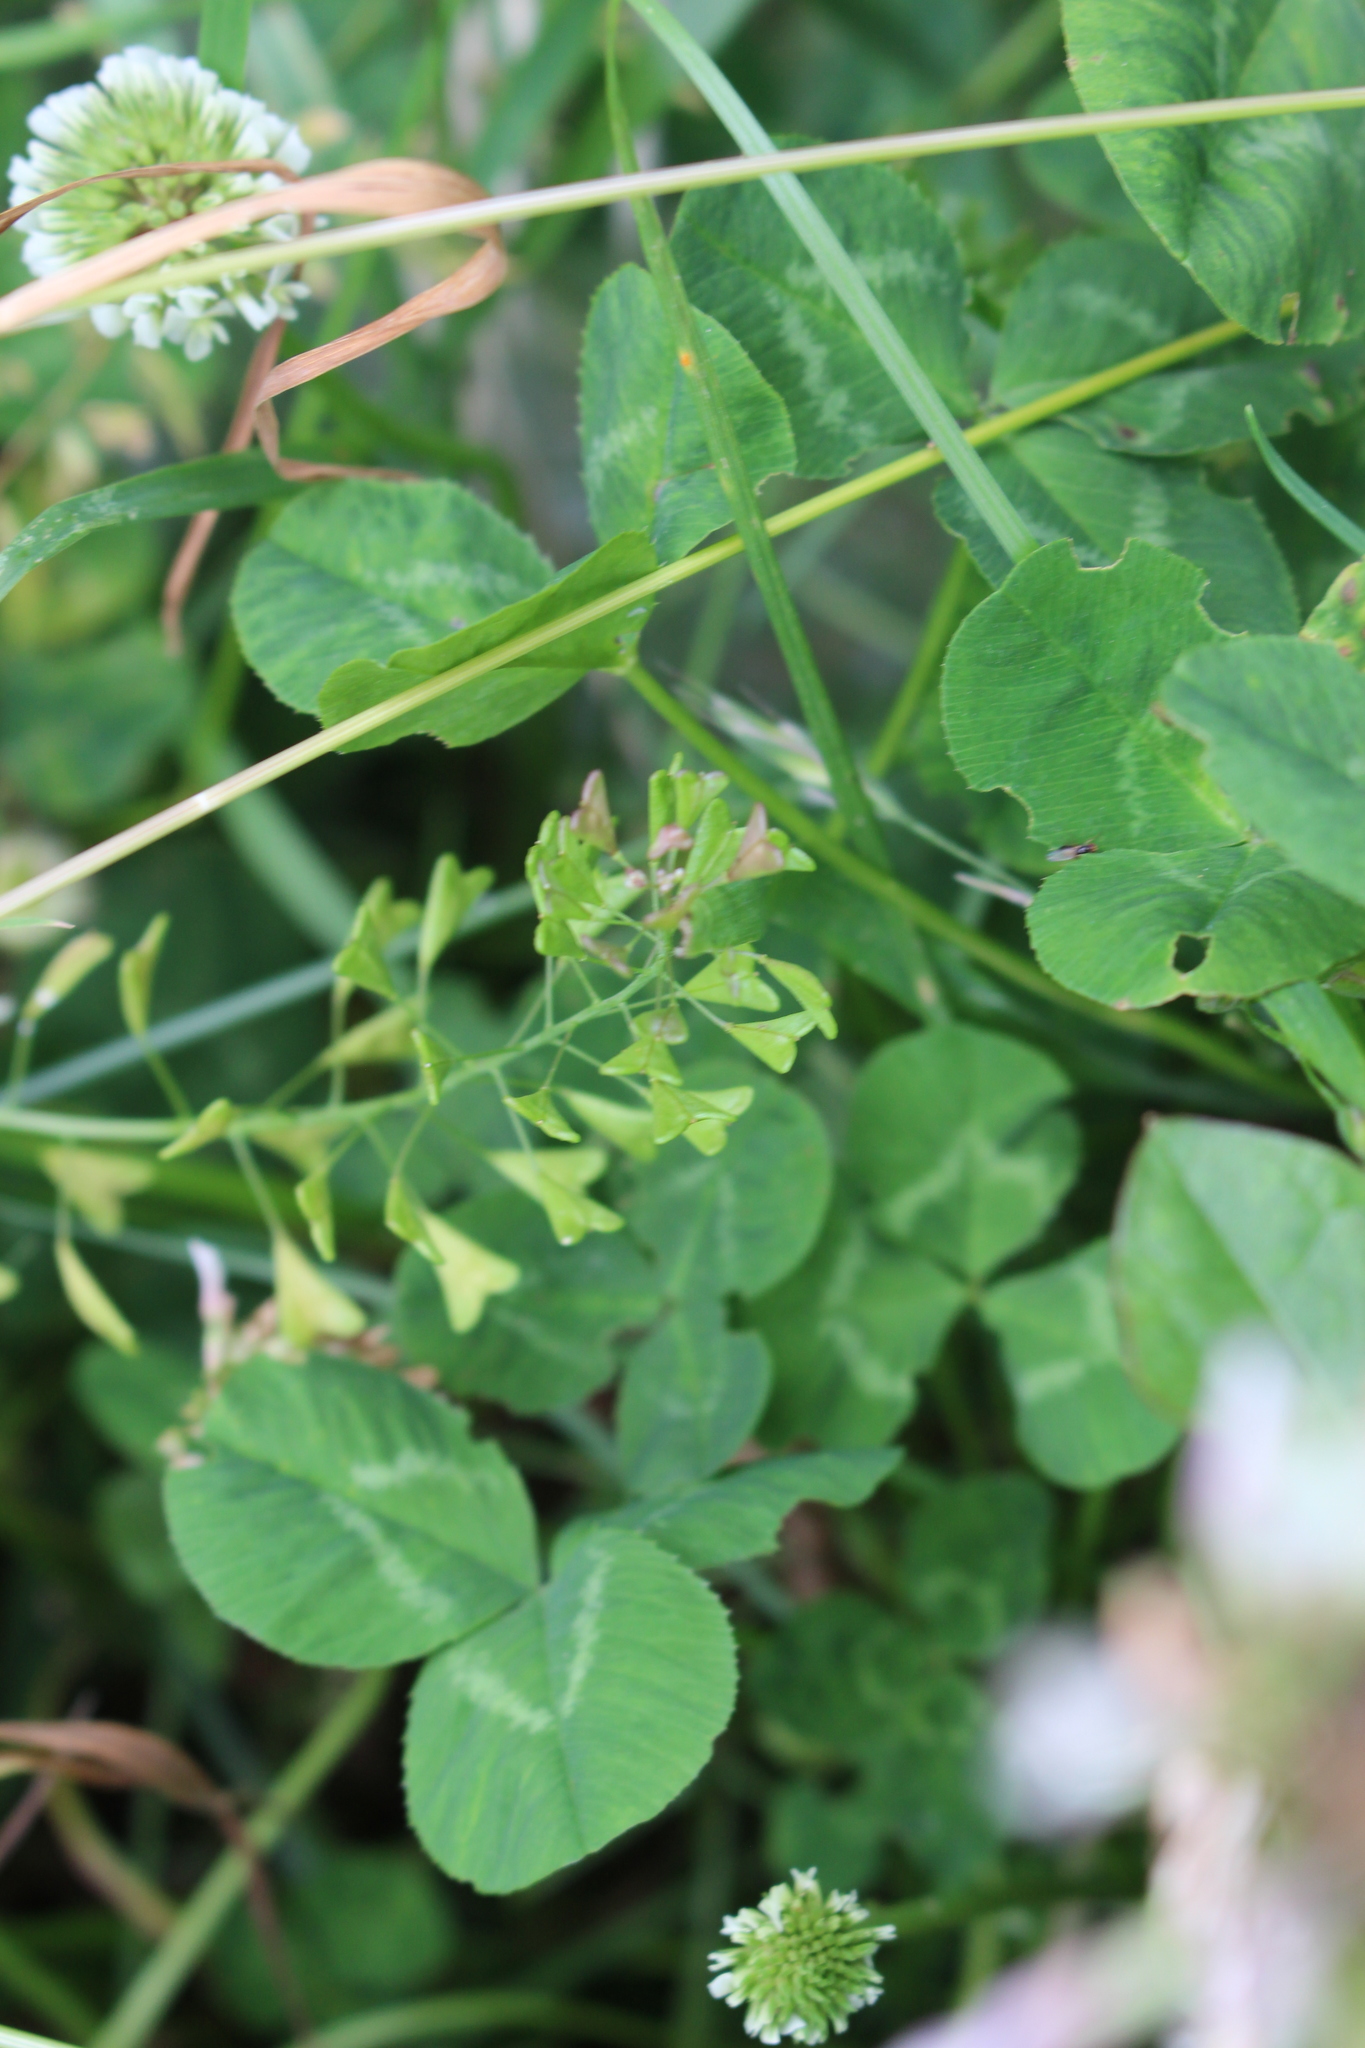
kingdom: Plantae
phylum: Tracheophyta
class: Magnoliopsida
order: Brassicales
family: Brassicaceae
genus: Capsella
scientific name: Capsella bursa-pastoris
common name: Shepherd's purse
